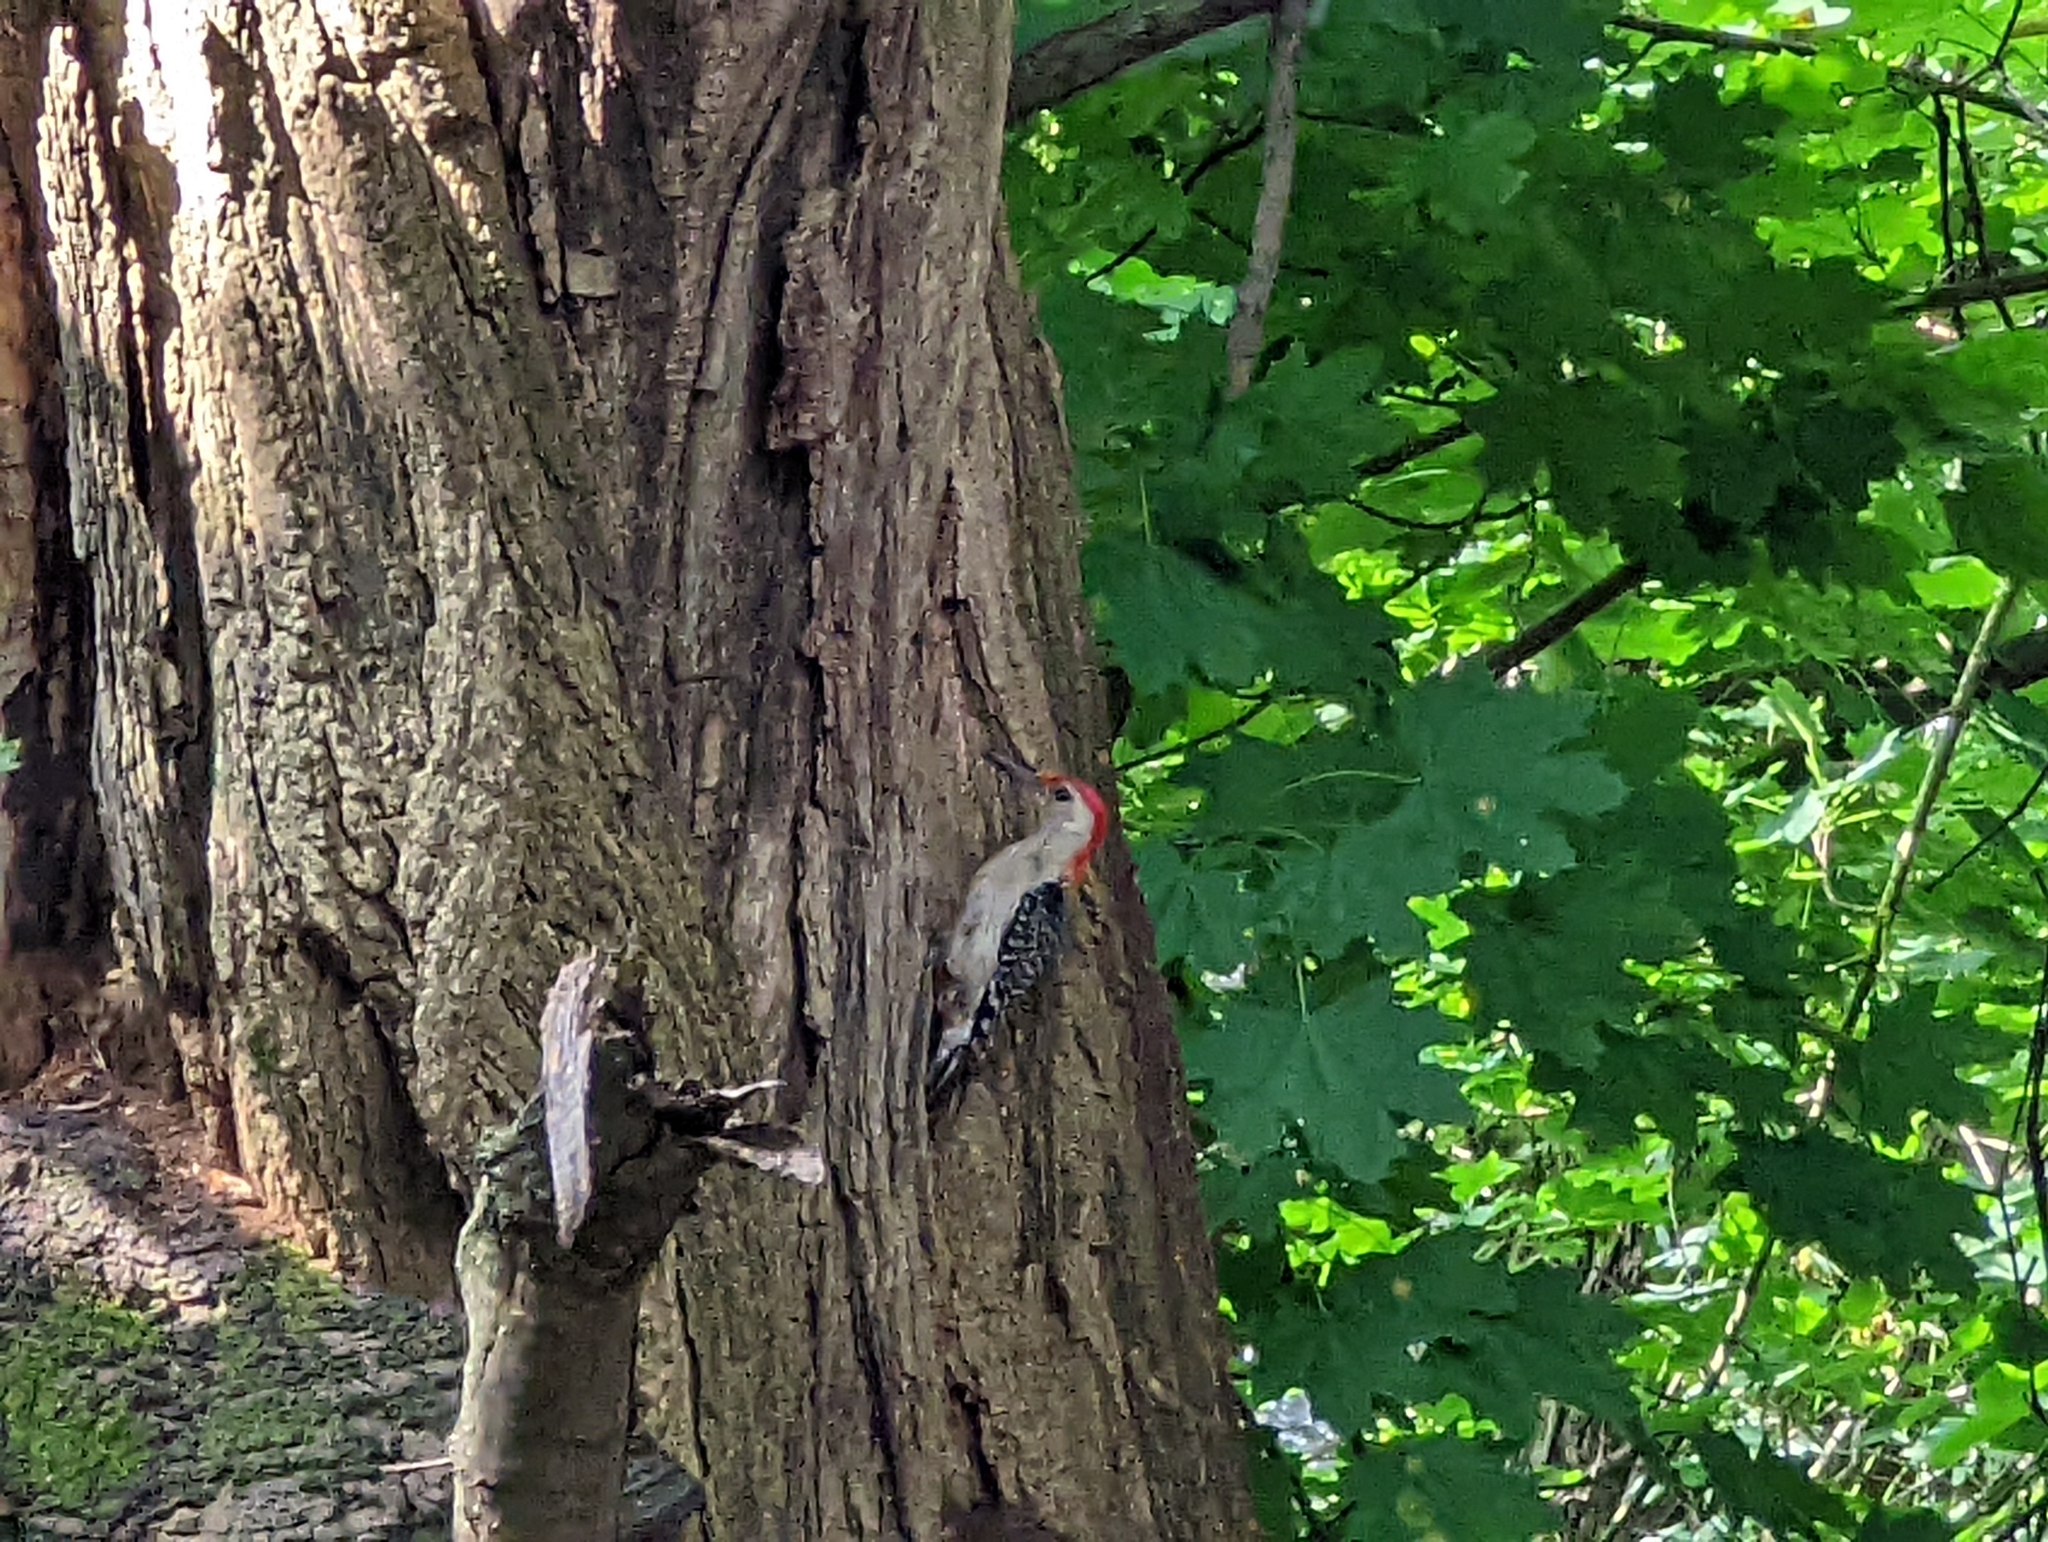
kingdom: Animalia
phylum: Chordata
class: Aves
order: Piciformes
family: Picidae
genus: Melanerpes
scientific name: Melanerpes carolinus
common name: Red-bellied woodpecker
